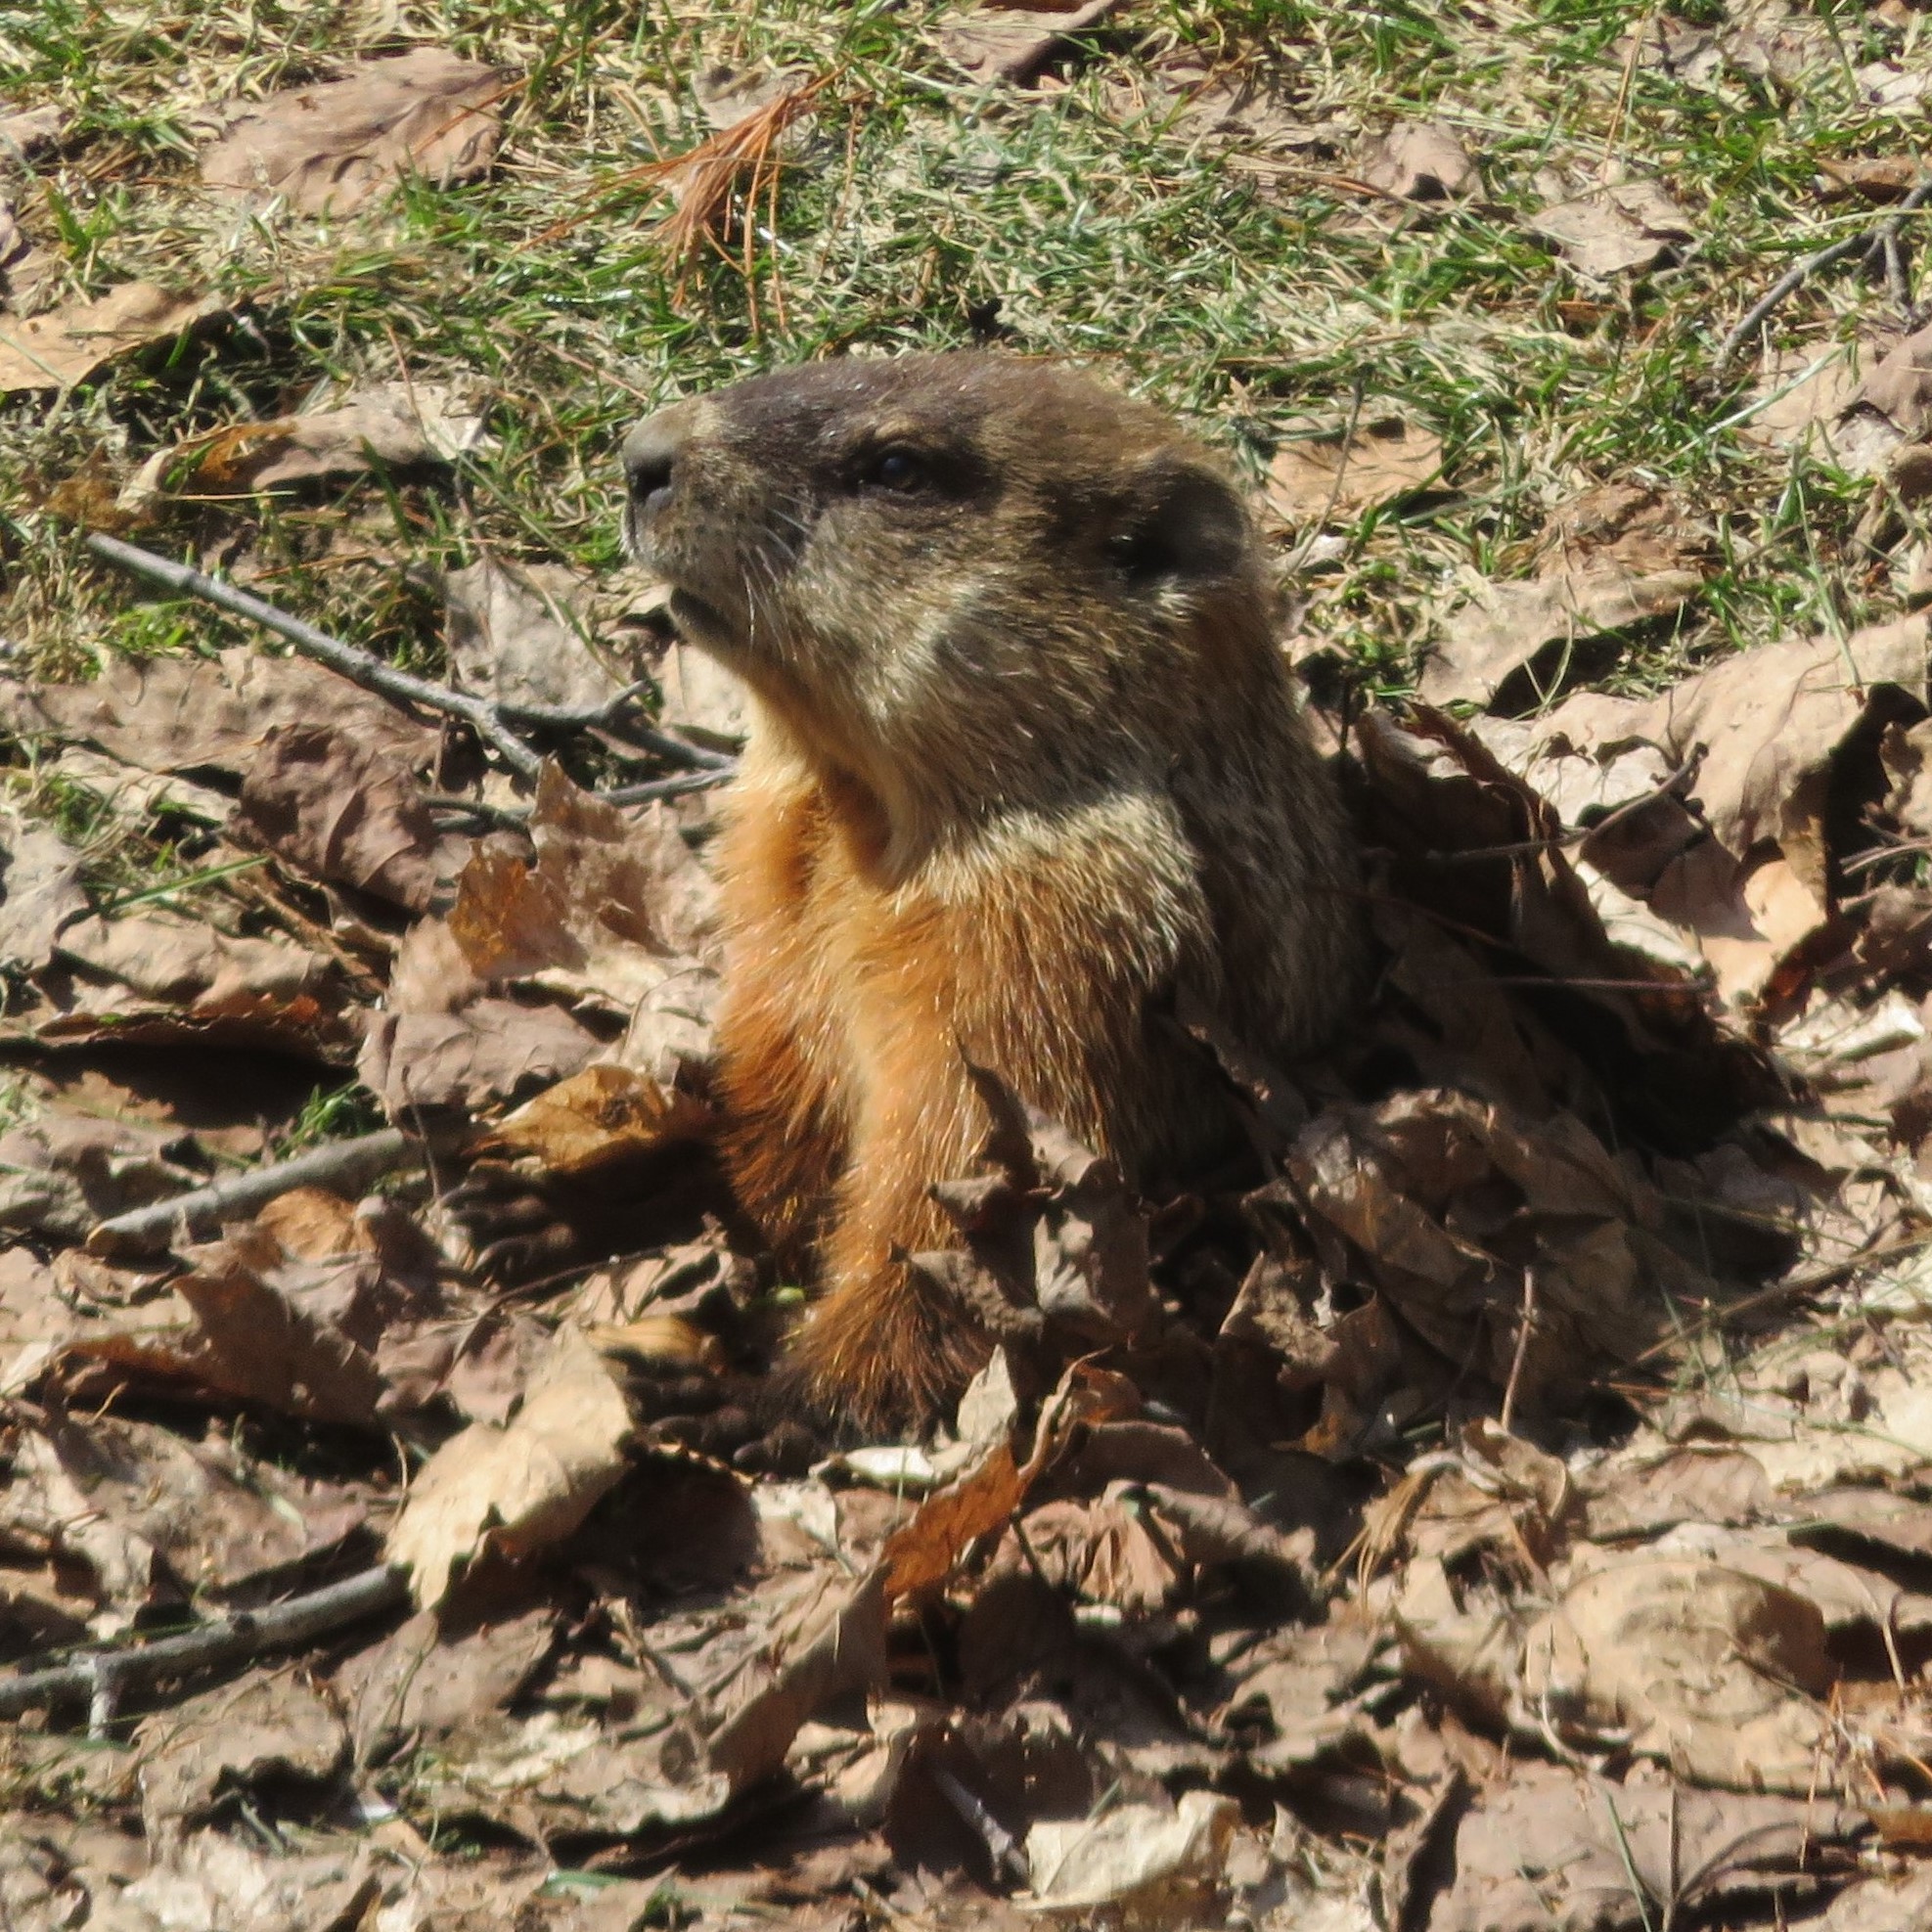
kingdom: Animalia
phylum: Chordata
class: Mammalia
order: Rodentia
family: Sciuridae
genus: Marmota
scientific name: Marmota monax
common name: Groundhog
